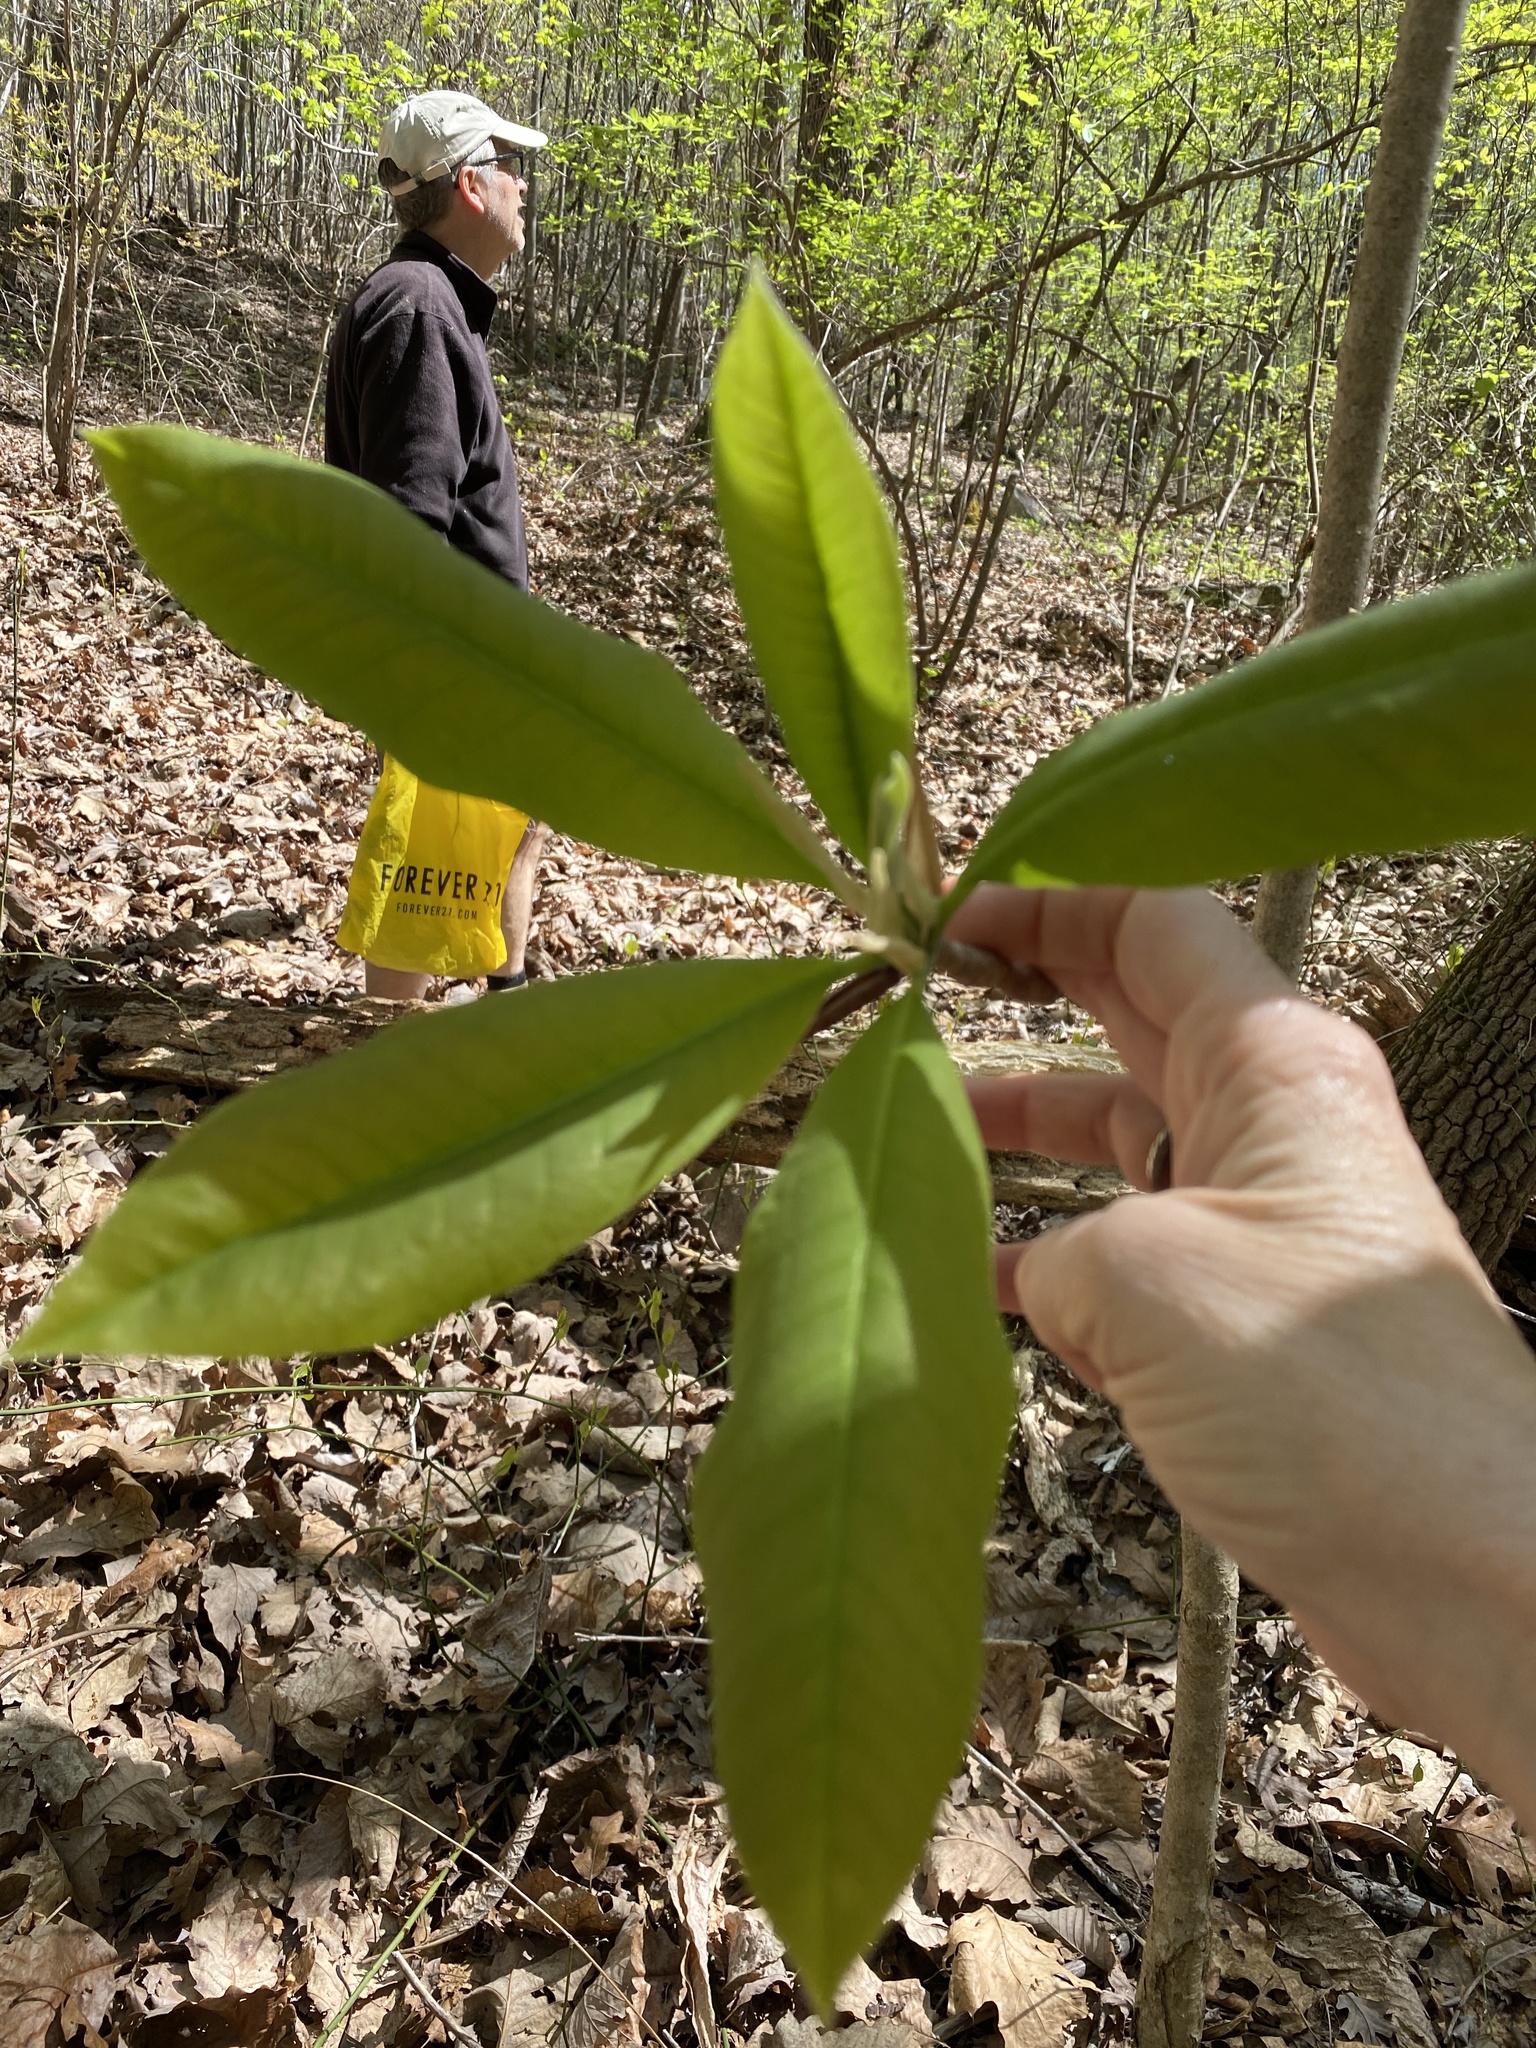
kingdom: Plantae
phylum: Tracheophyta
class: Magnoliopsida
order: Magnoliales
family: Magnoliaceae
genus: Magnolia
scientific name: Magnolia tripetala
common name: Umbrella magnolia
